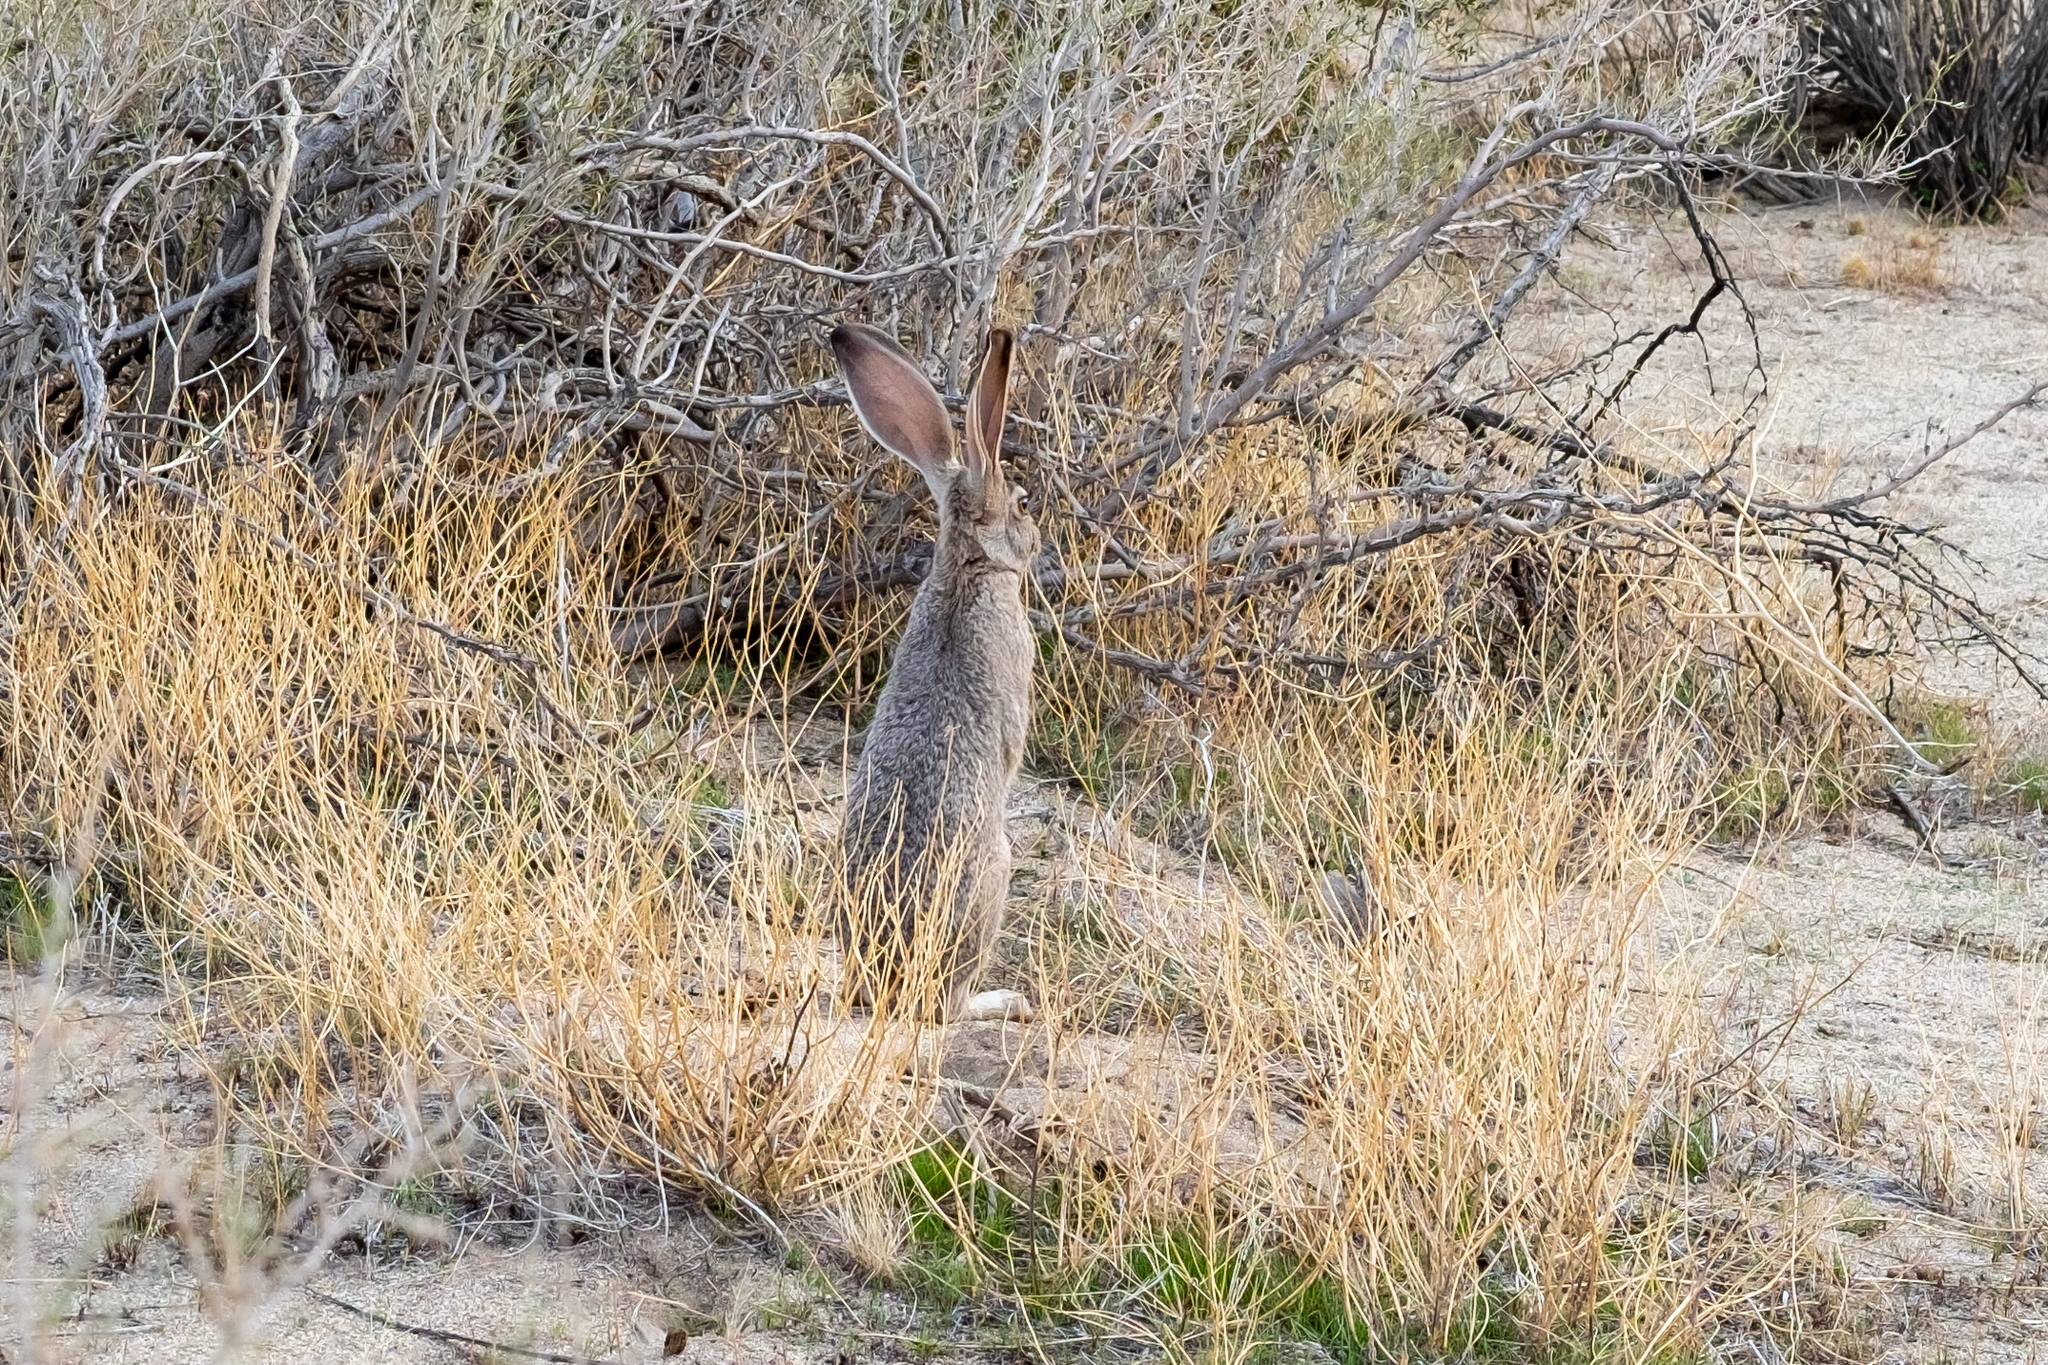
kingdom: Animalia
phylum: Chordata
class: Mammalia
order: Lagomorpha
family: Leporidae
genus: Lepus
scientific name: Lepus californicus
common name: Black-tailed jackrabbit
